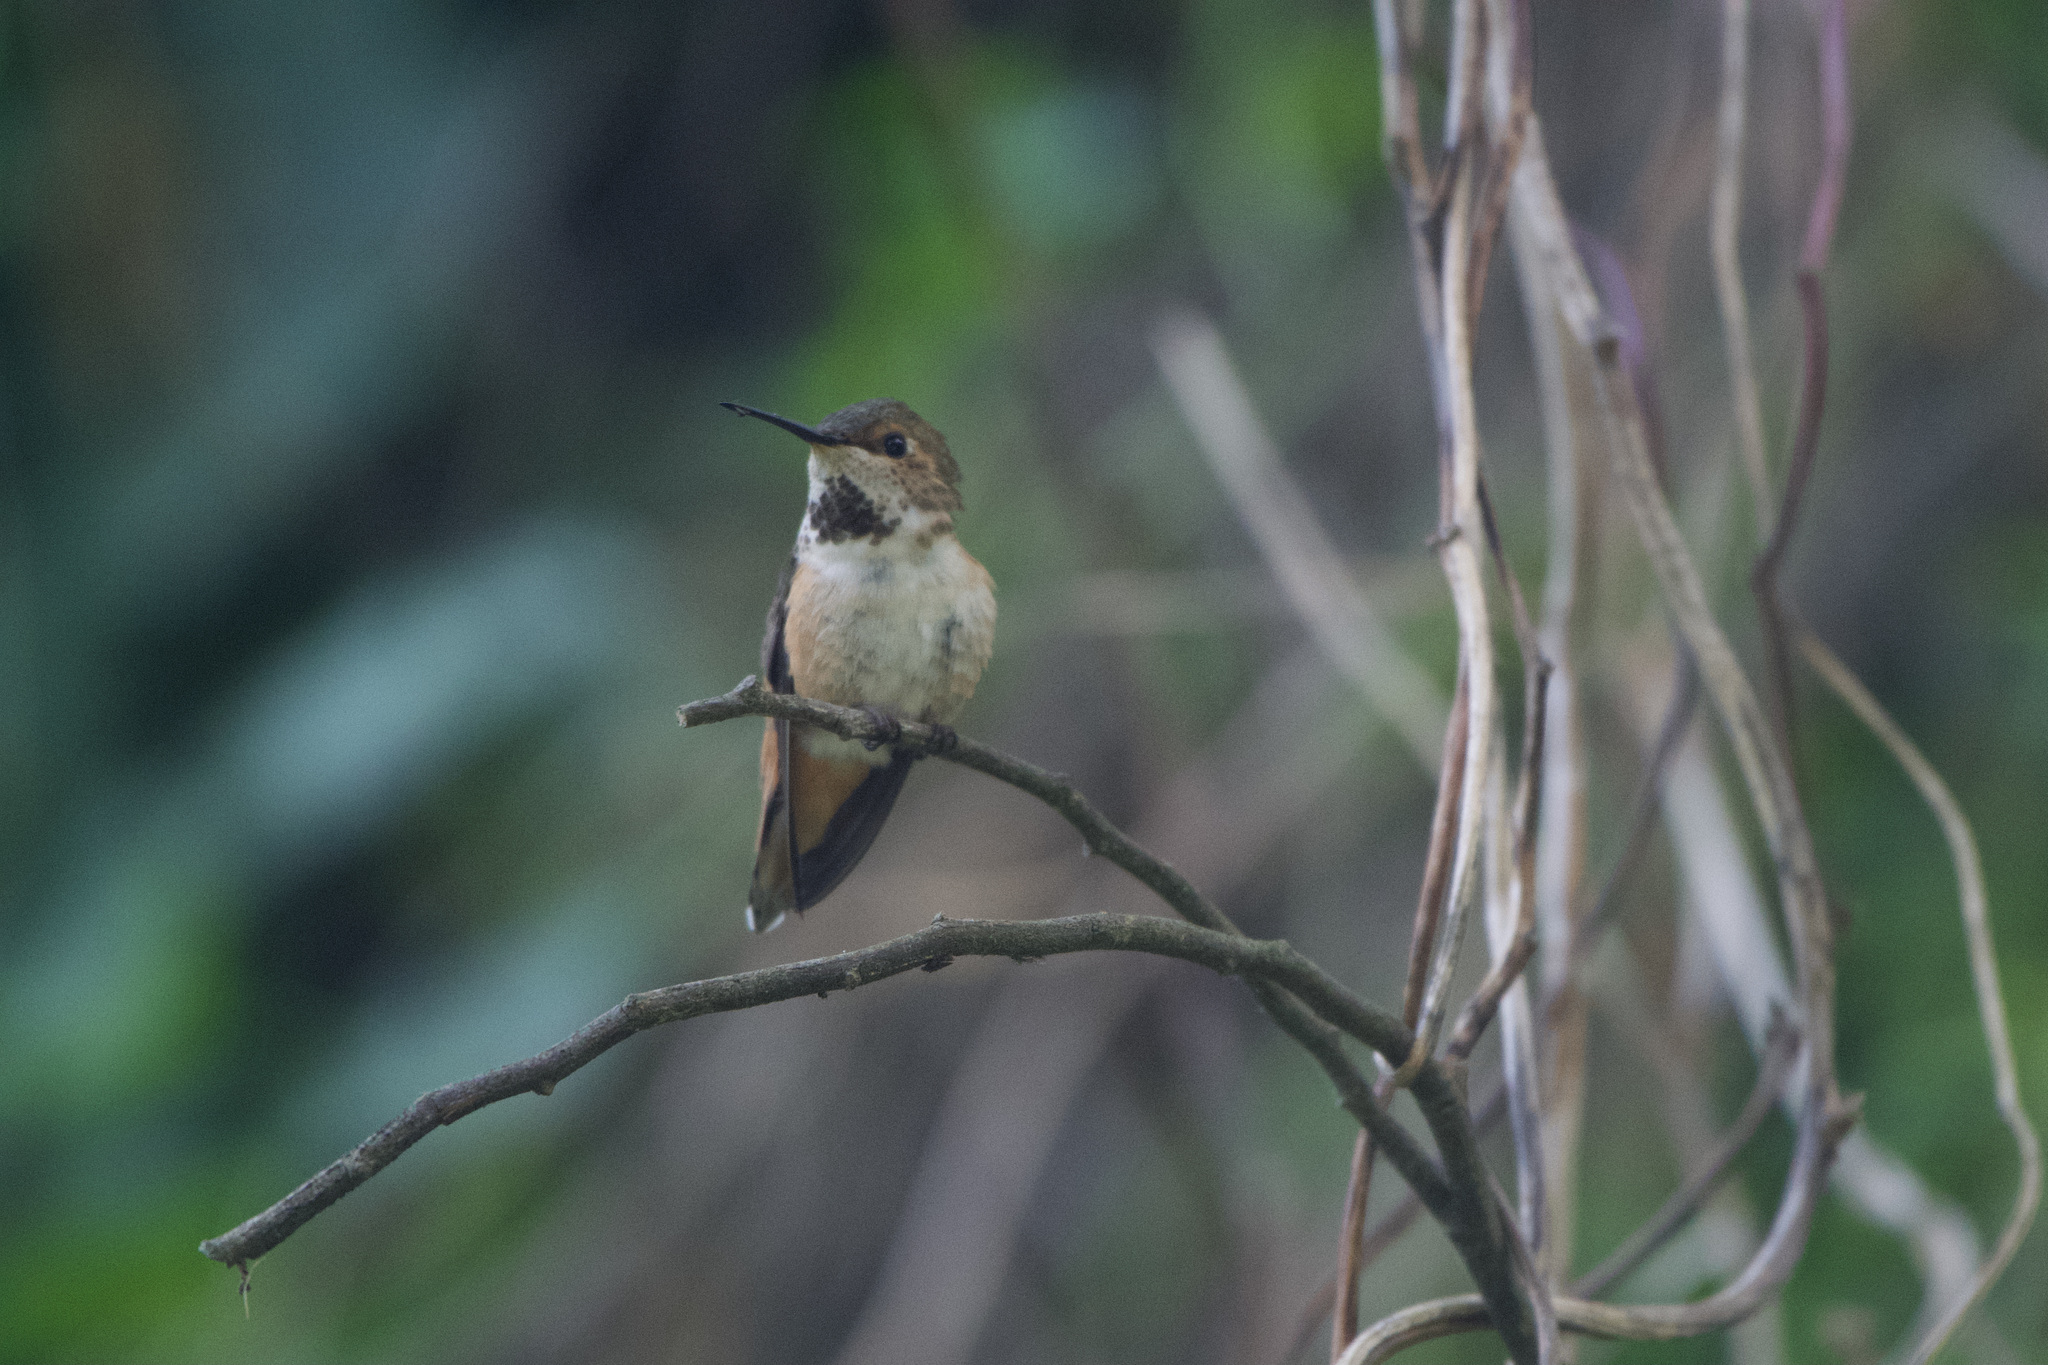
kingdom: Animalia
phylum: Chordata
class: Aves
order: Apodiformes
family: Trochilidae
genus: Selasphorus
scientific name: Selasphorus
